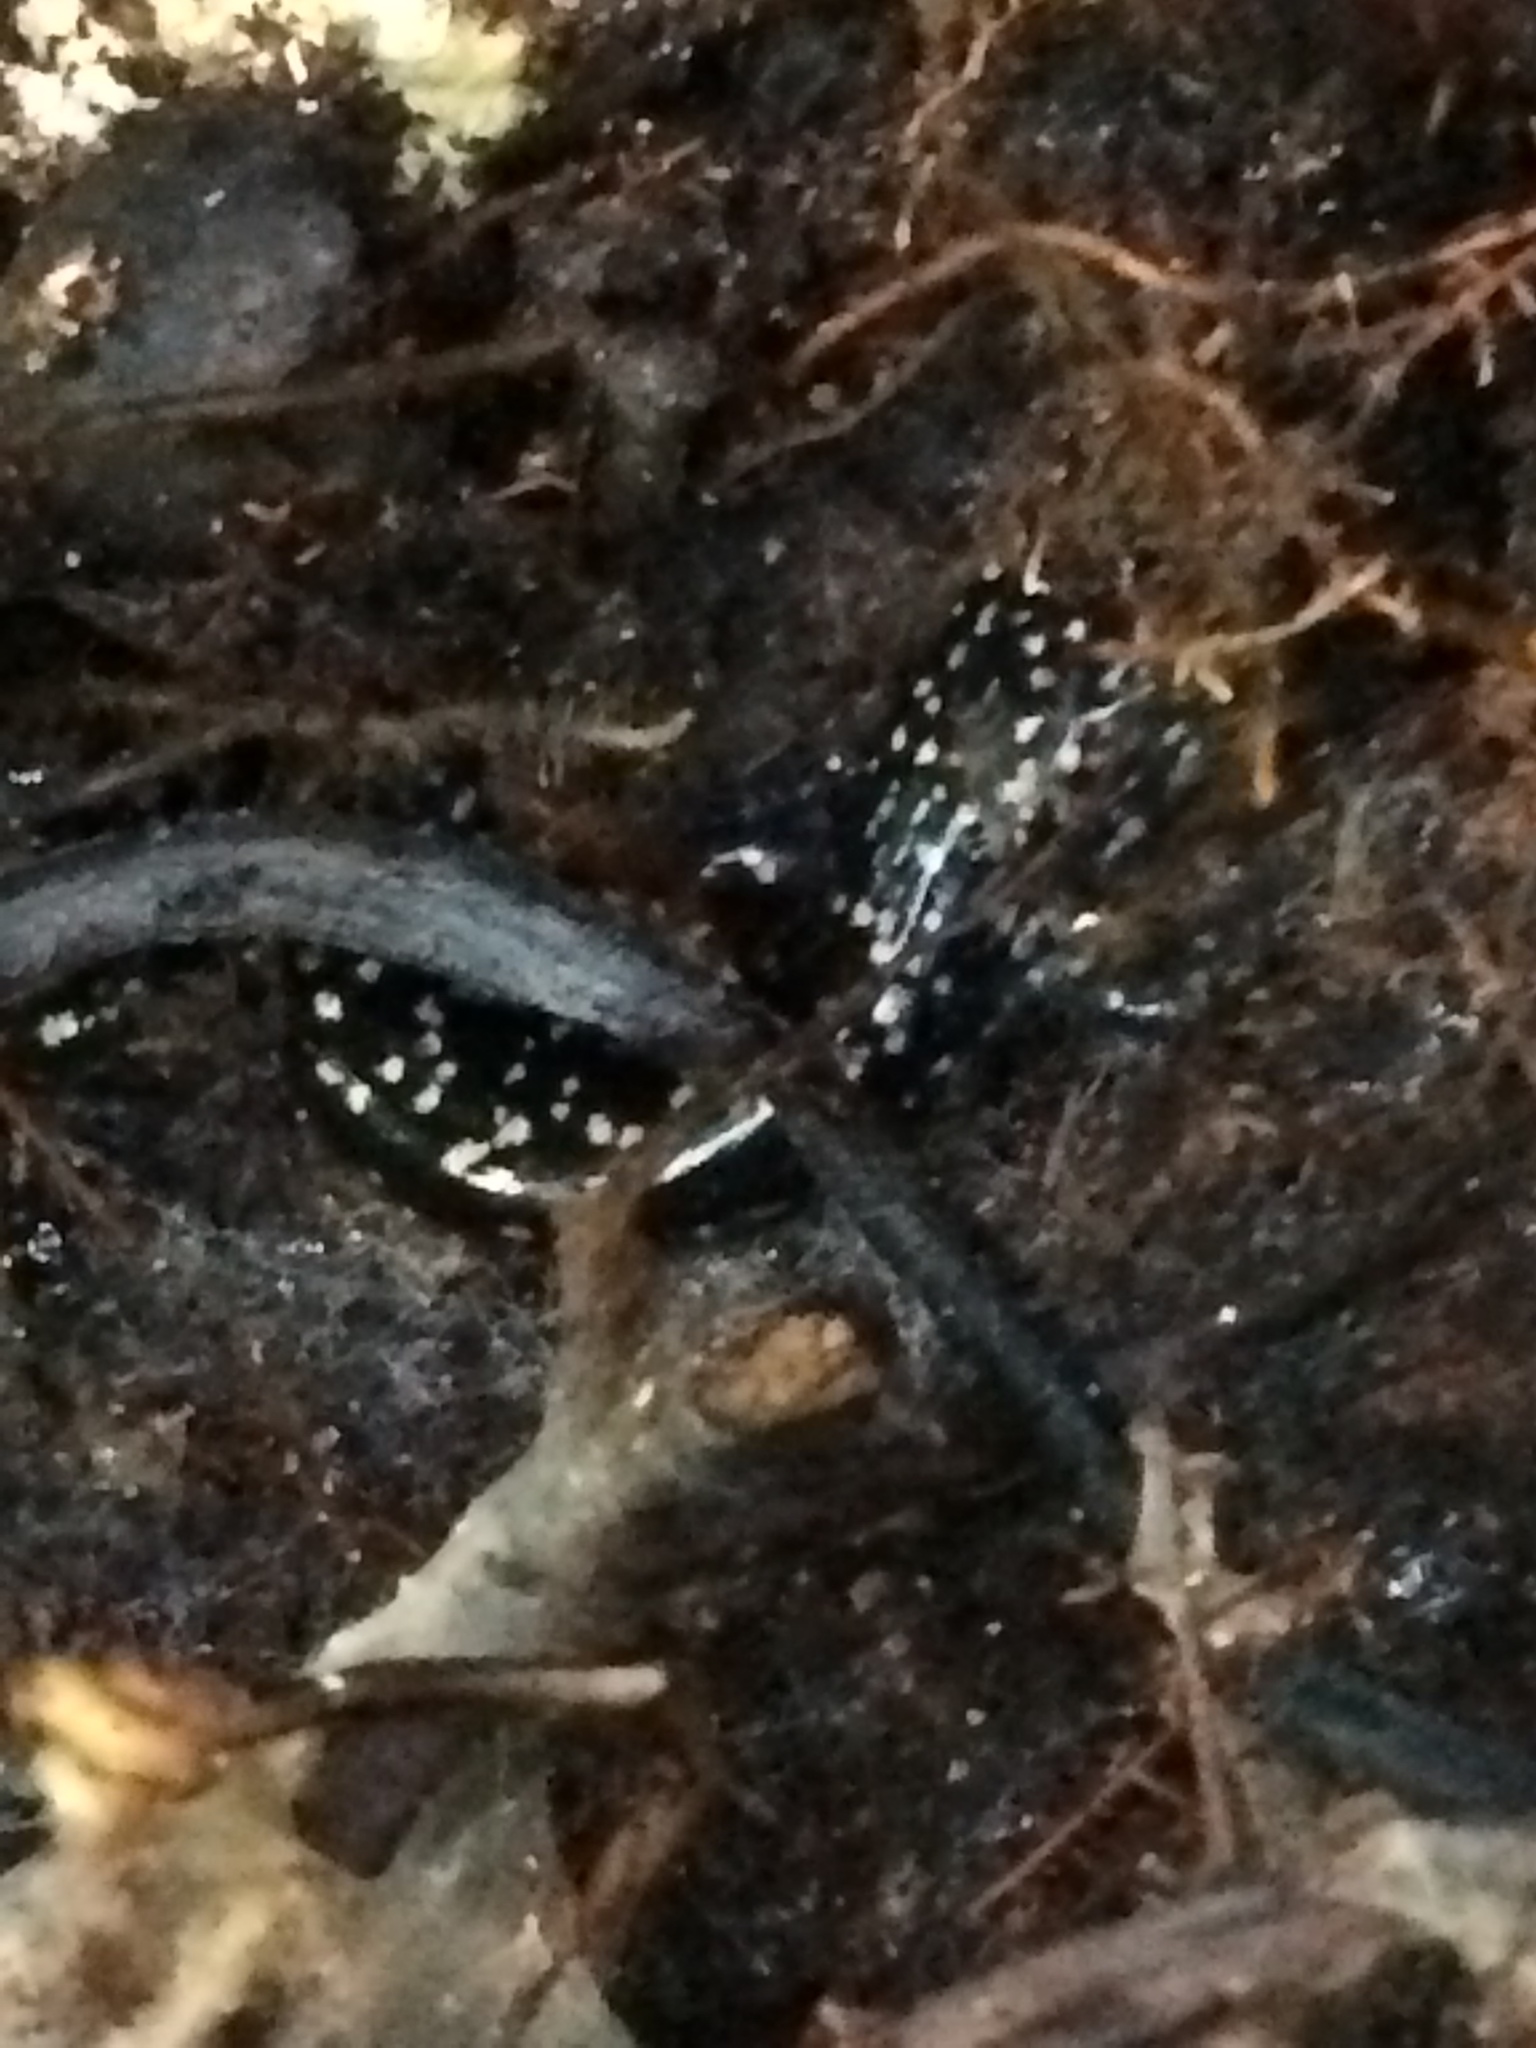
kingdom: Animalia
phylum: Chordata
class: Amphibia
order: Caudata
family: Plethodontidae
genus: Plethodon
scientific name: Plethodon grobmani
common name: Southeastern slimy salamander
